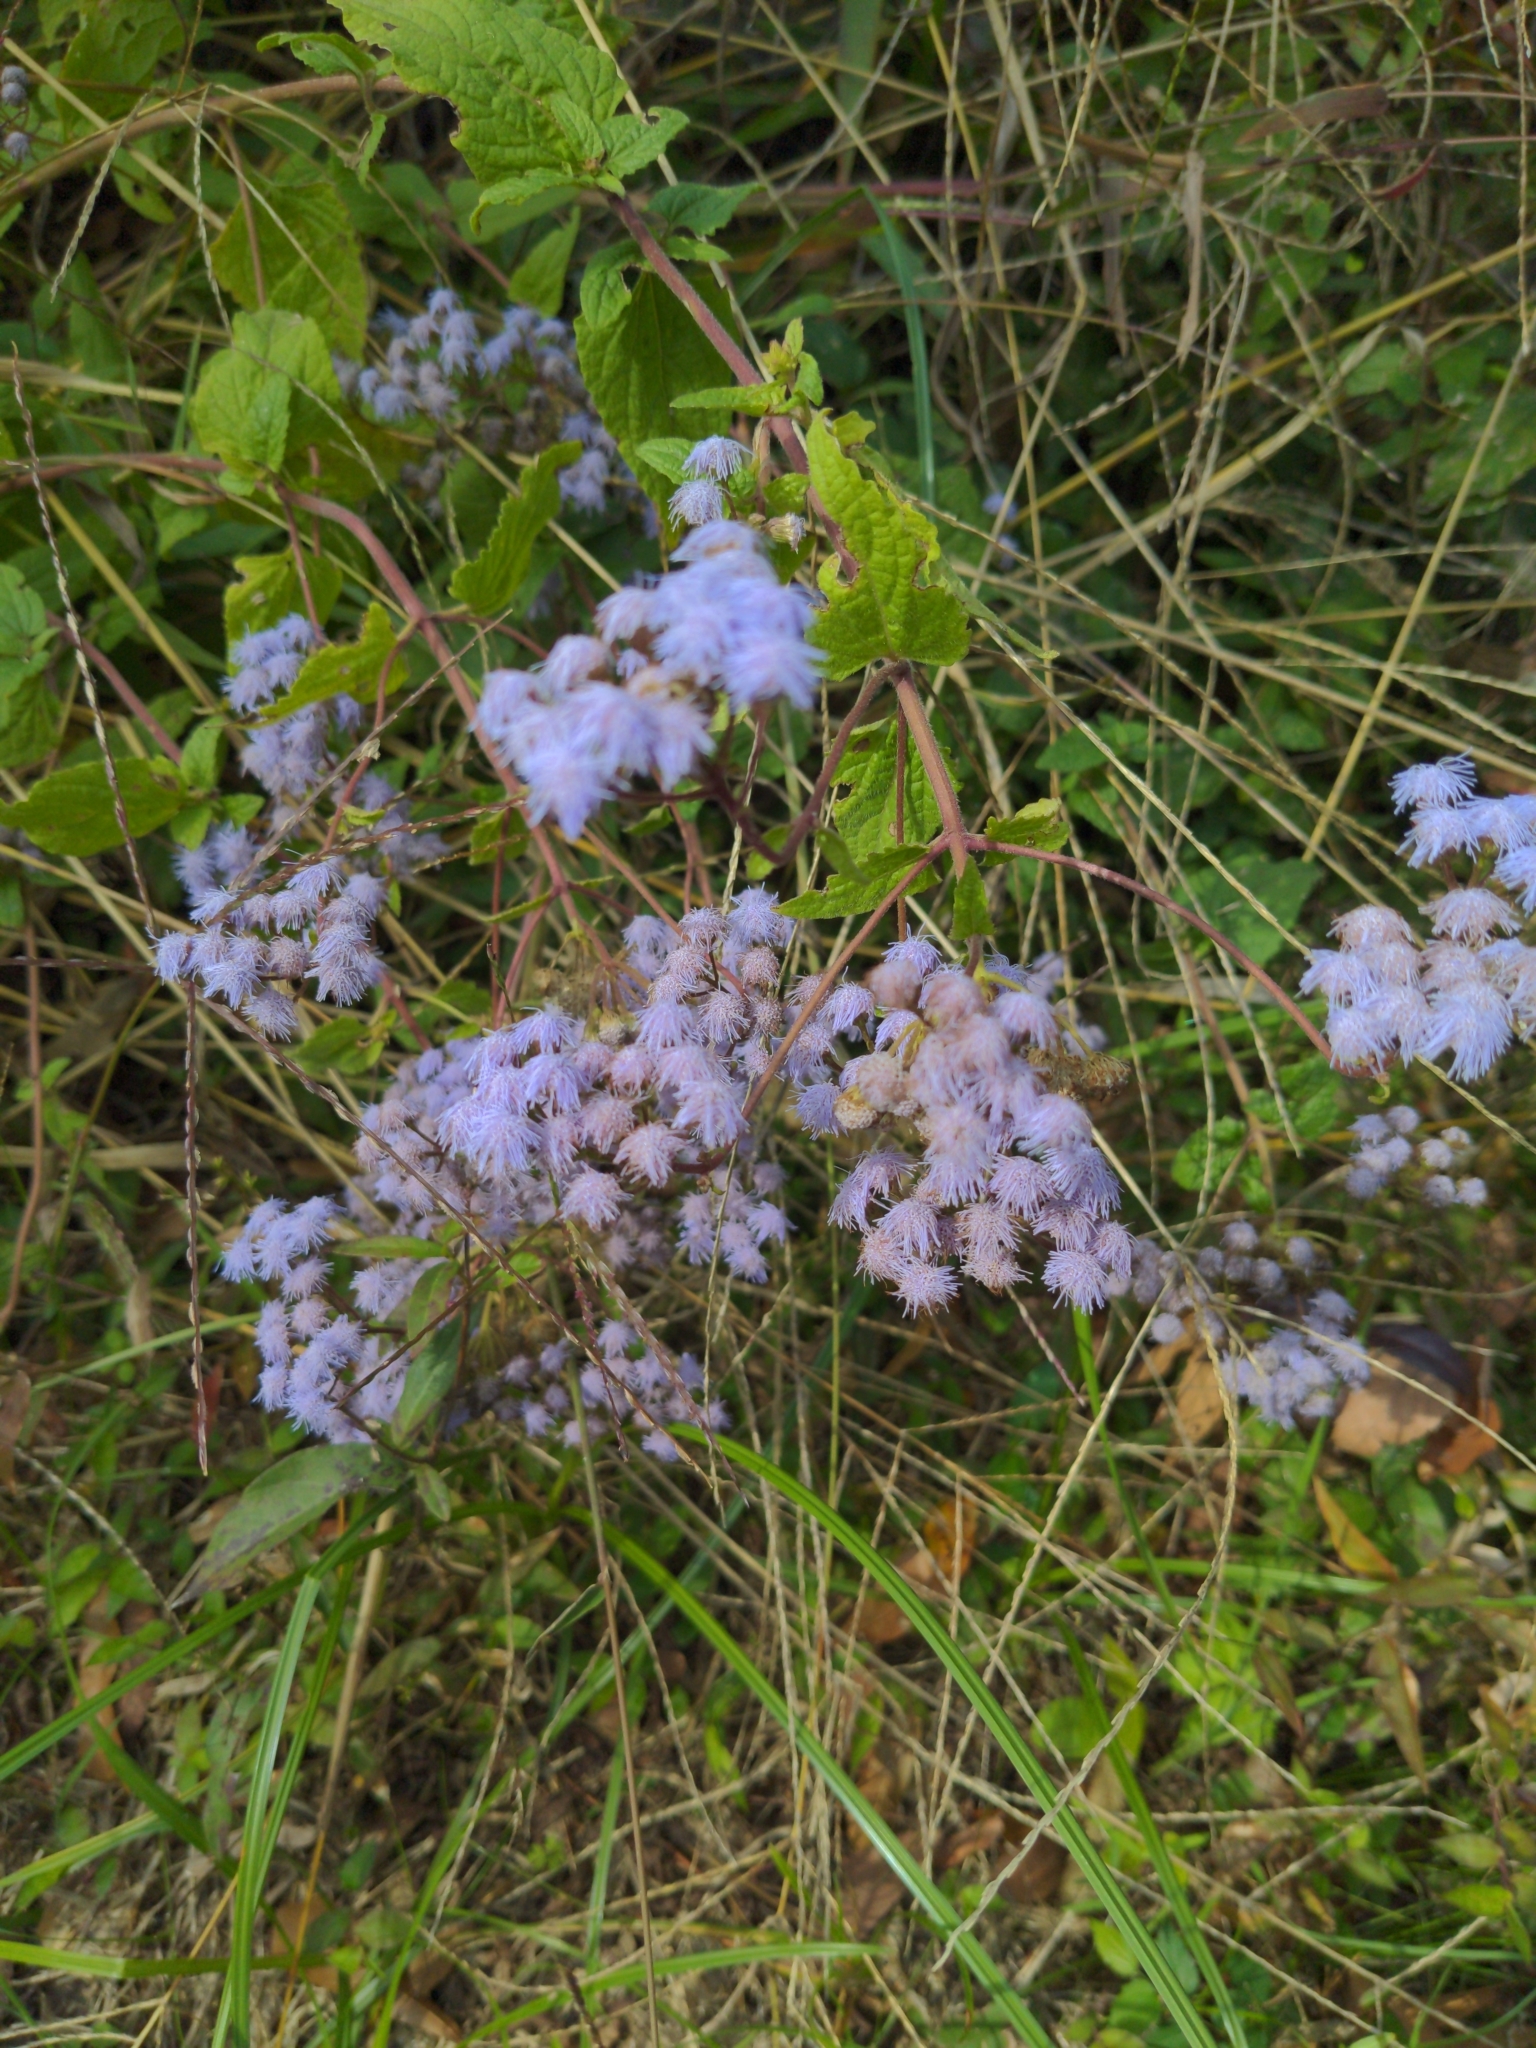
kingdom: Plantae
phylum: Tracheophyta
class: Magnoliopsida
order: Asterales
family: Asteraceae
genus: Conoclinium
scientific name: Conoclinium coelestinum
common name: Blue mistflower
